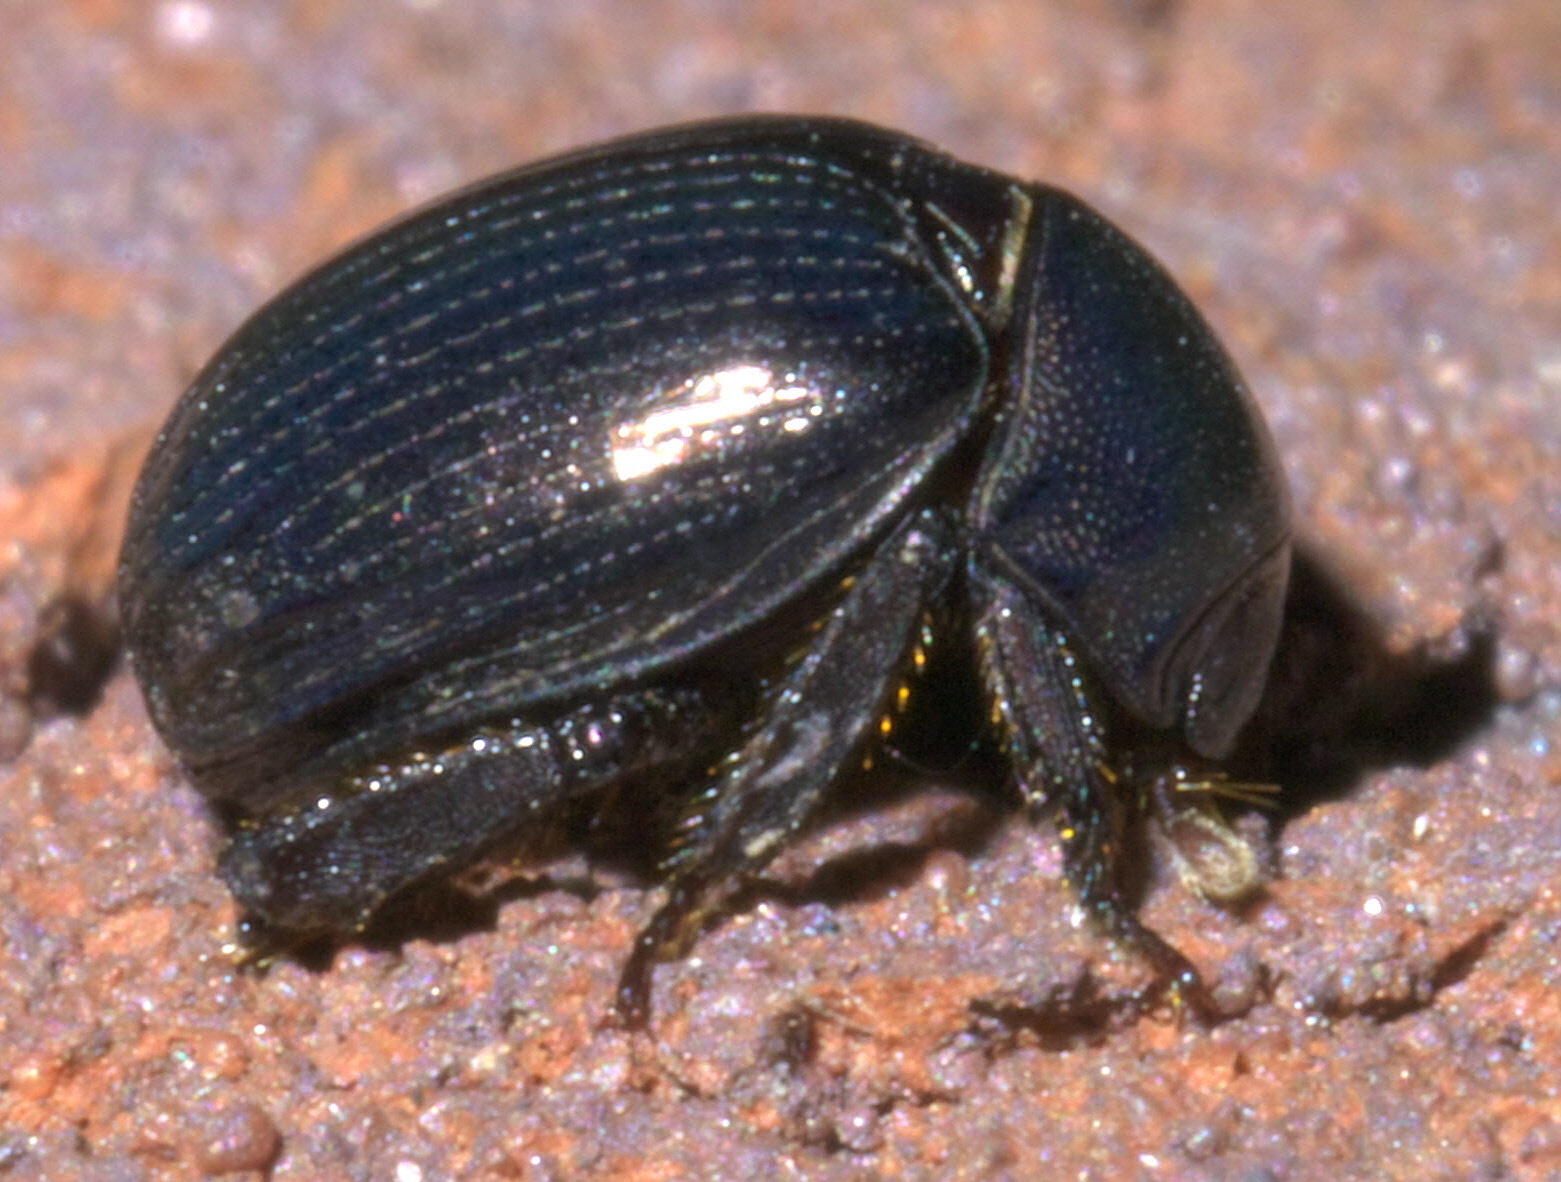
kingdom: Animalia
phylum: Arthropoda
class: Insecta
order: Coleoptera
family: Hybosoridae
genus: Germarostes
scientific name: Germarostes aphodioides
